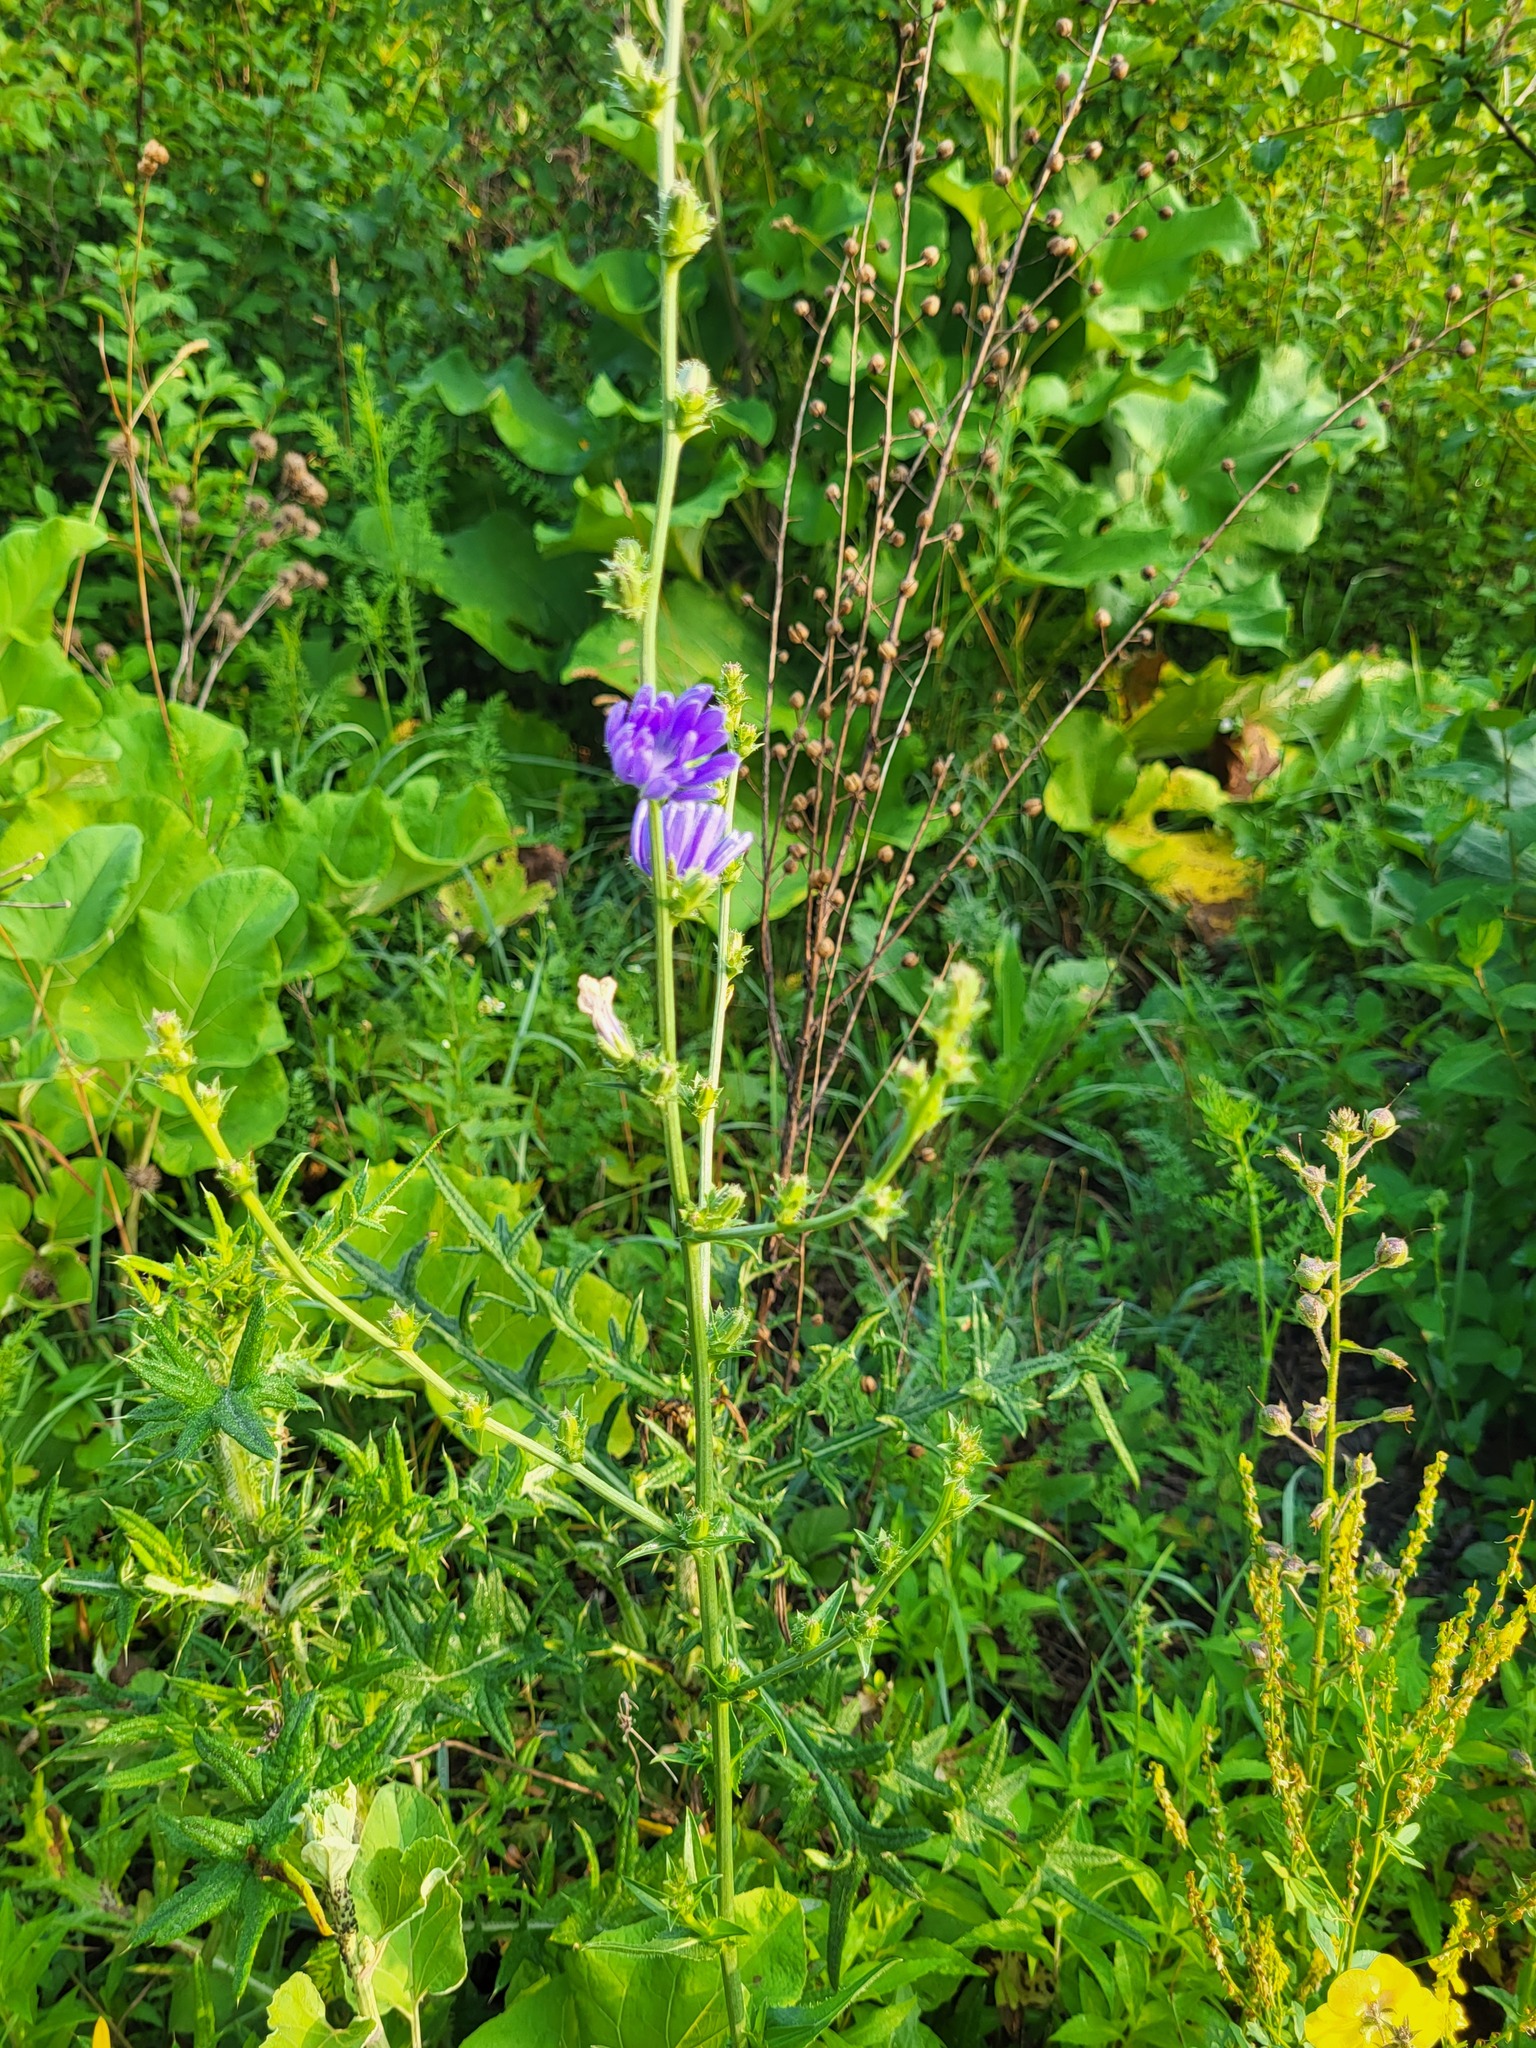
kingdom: Plantae
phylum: Tracheophyta
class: Magnoliopsida
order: Asterales
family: Asteraceae
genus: Cichorium
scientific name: Cichorium intybus
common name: Chicory
